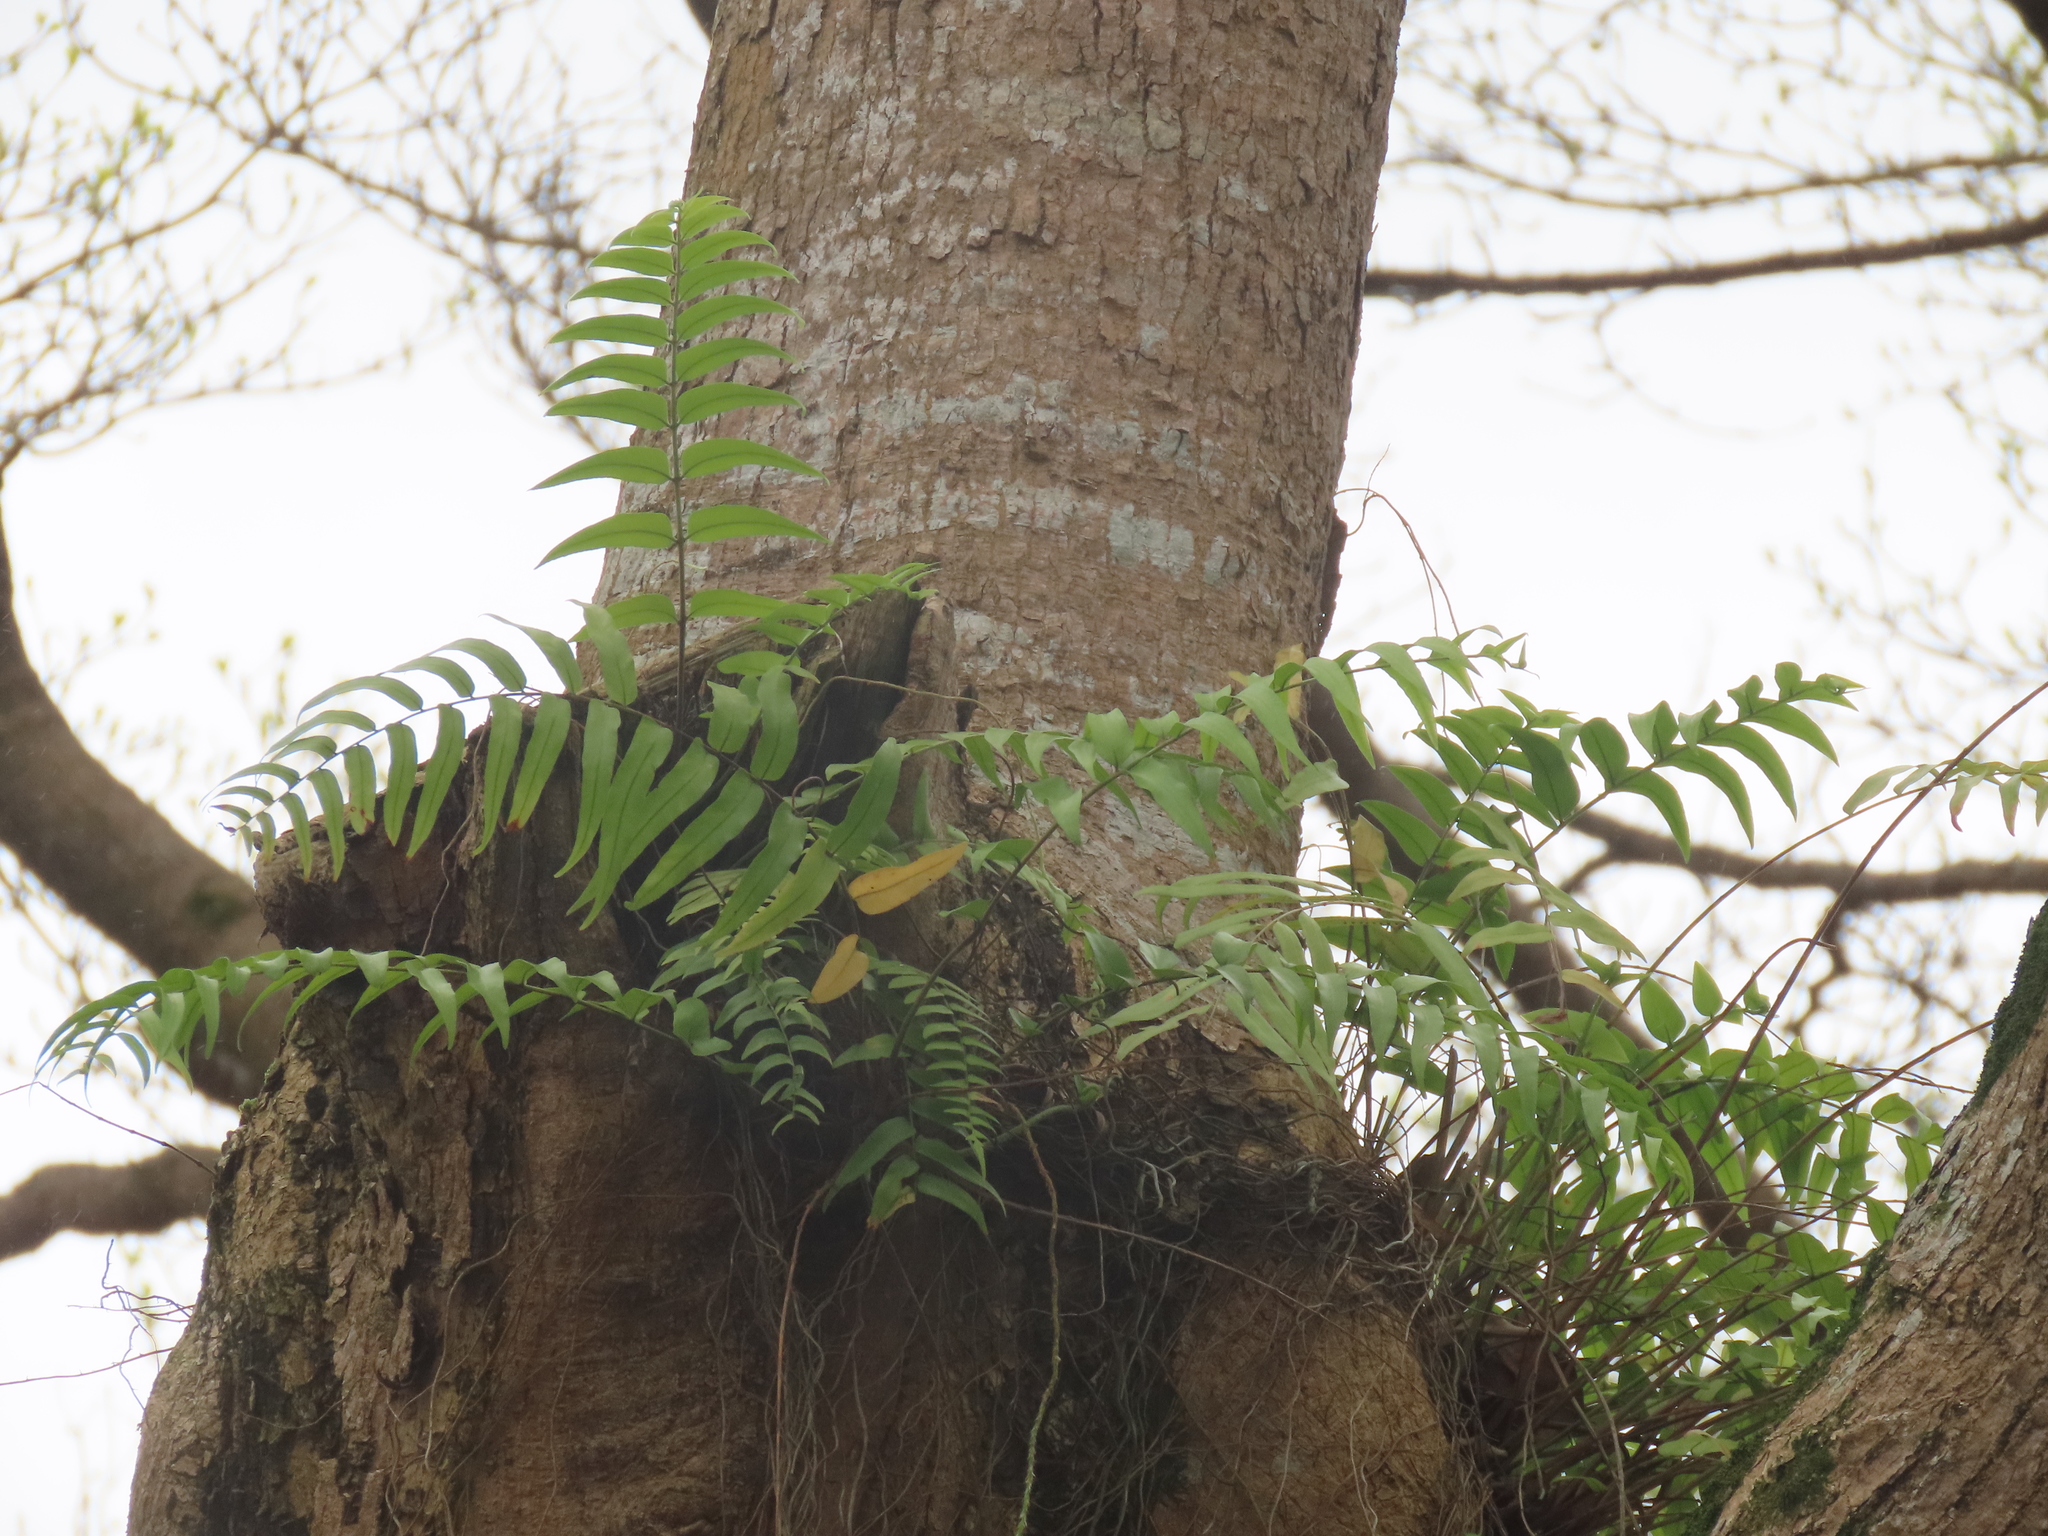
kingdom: Plantae
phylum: Tracheophyta
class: Polypodiopsida
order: Polypodiales
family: Nephrolepidaceae
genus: Nephrolepis
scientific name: Nephrolepis biserrata
